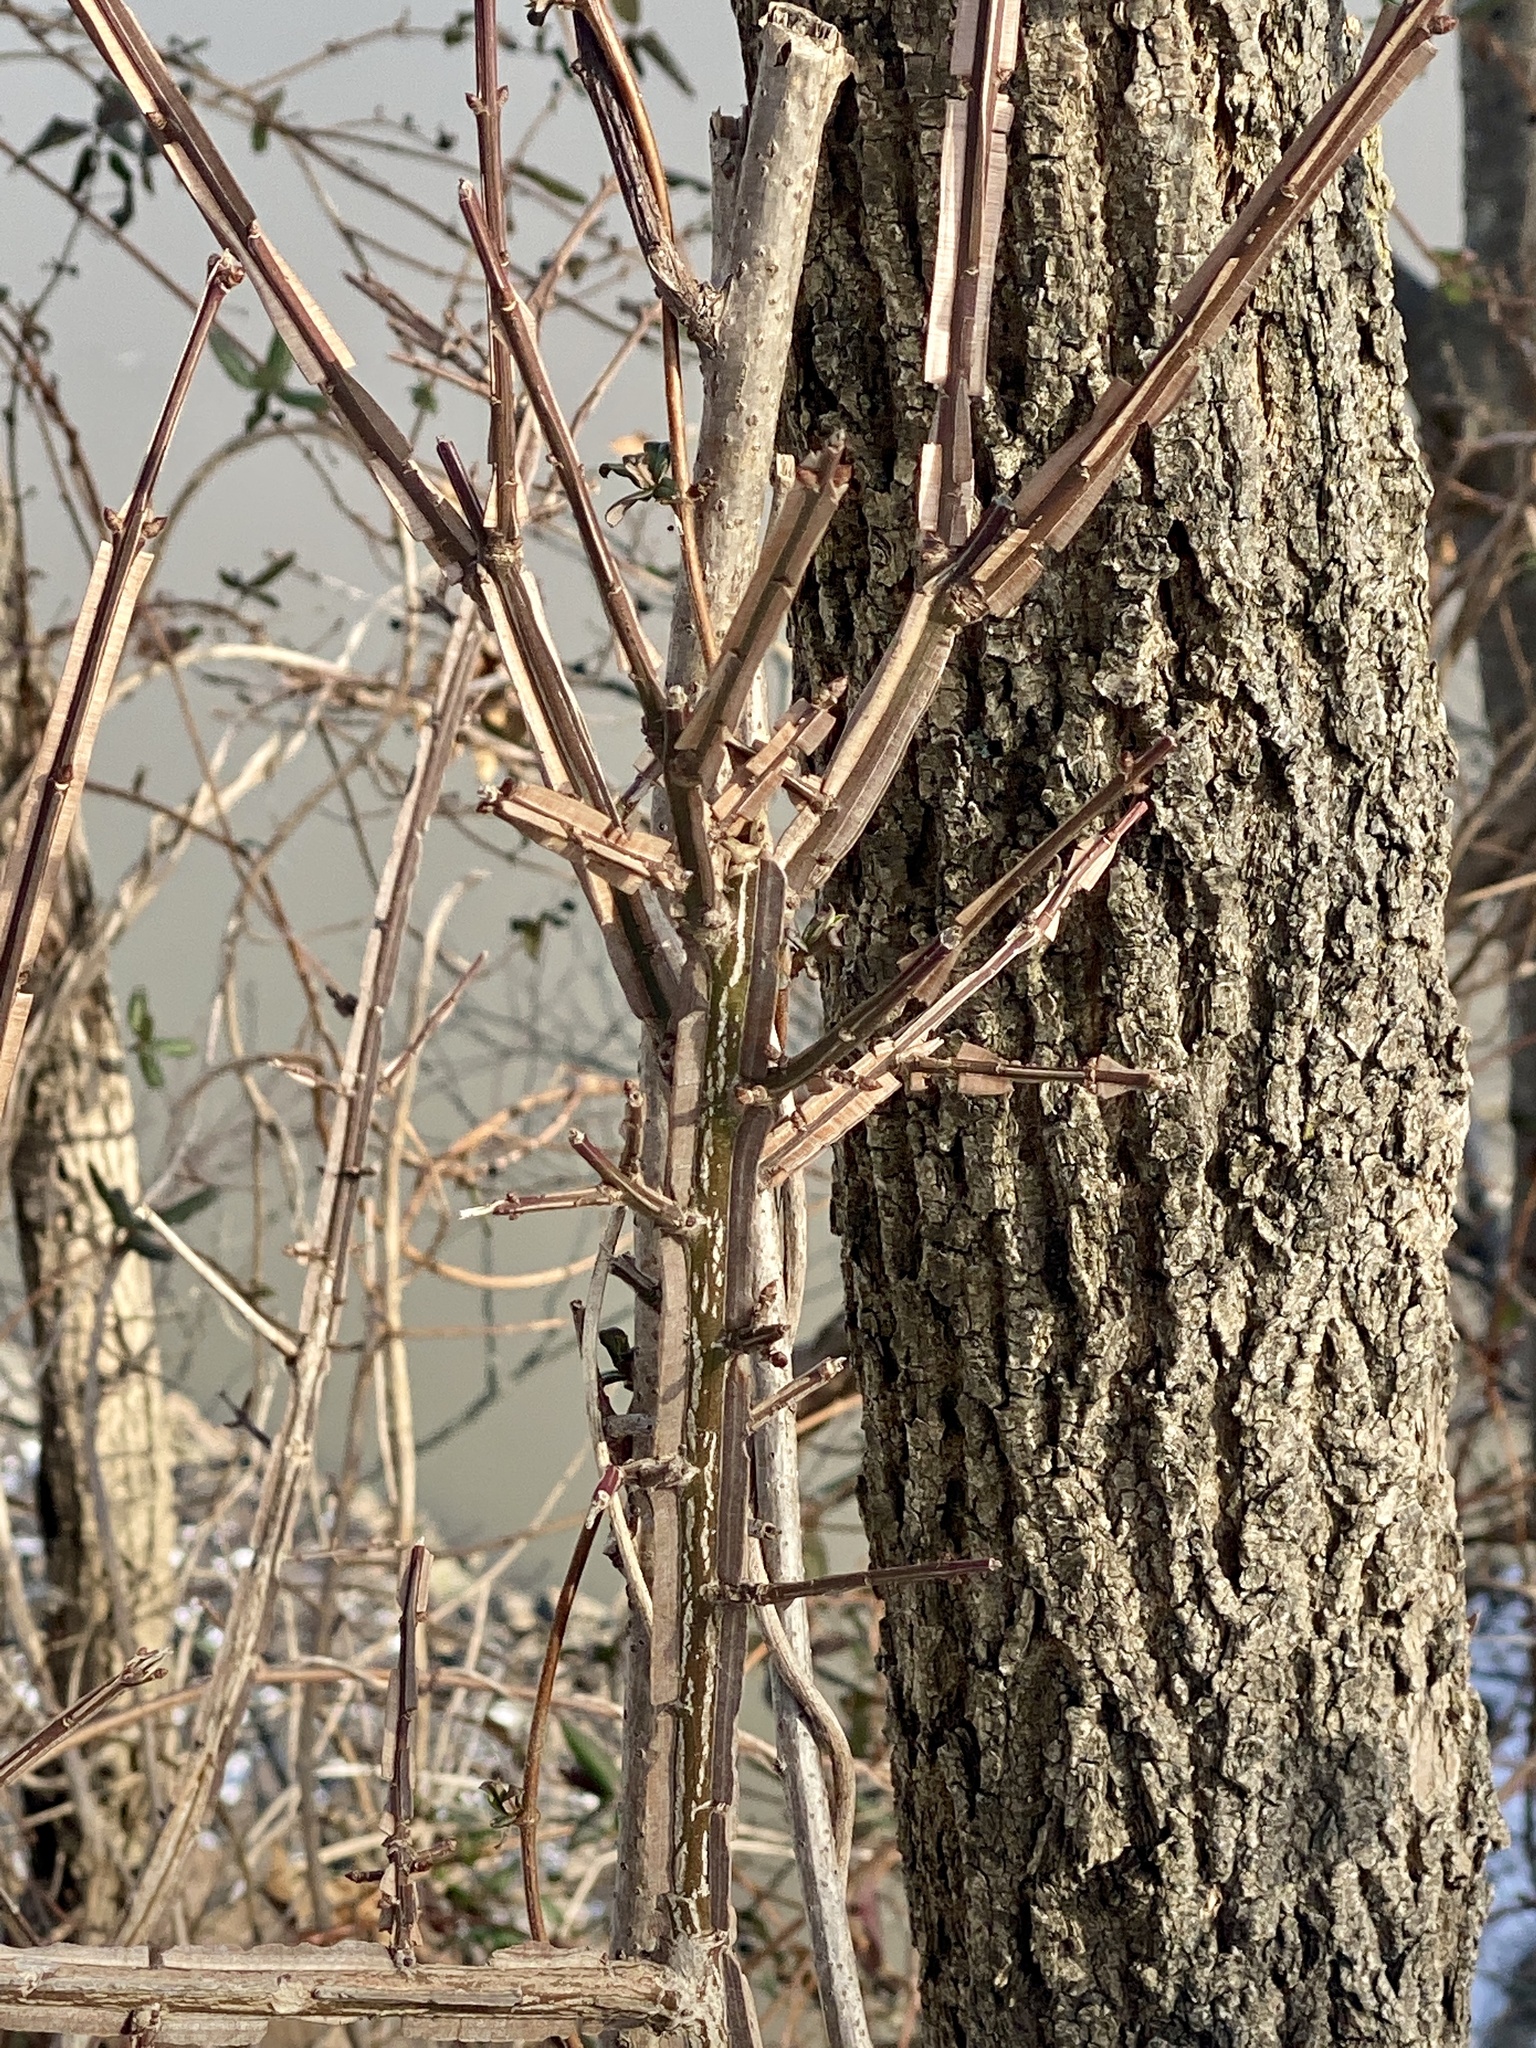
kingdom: Plantae
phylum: Tracheophyta
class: Magnoliopsida
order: Celastrales
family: Celastraceae
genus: Euonymus
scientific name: Euonymus alatus
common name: Winged euonymus
